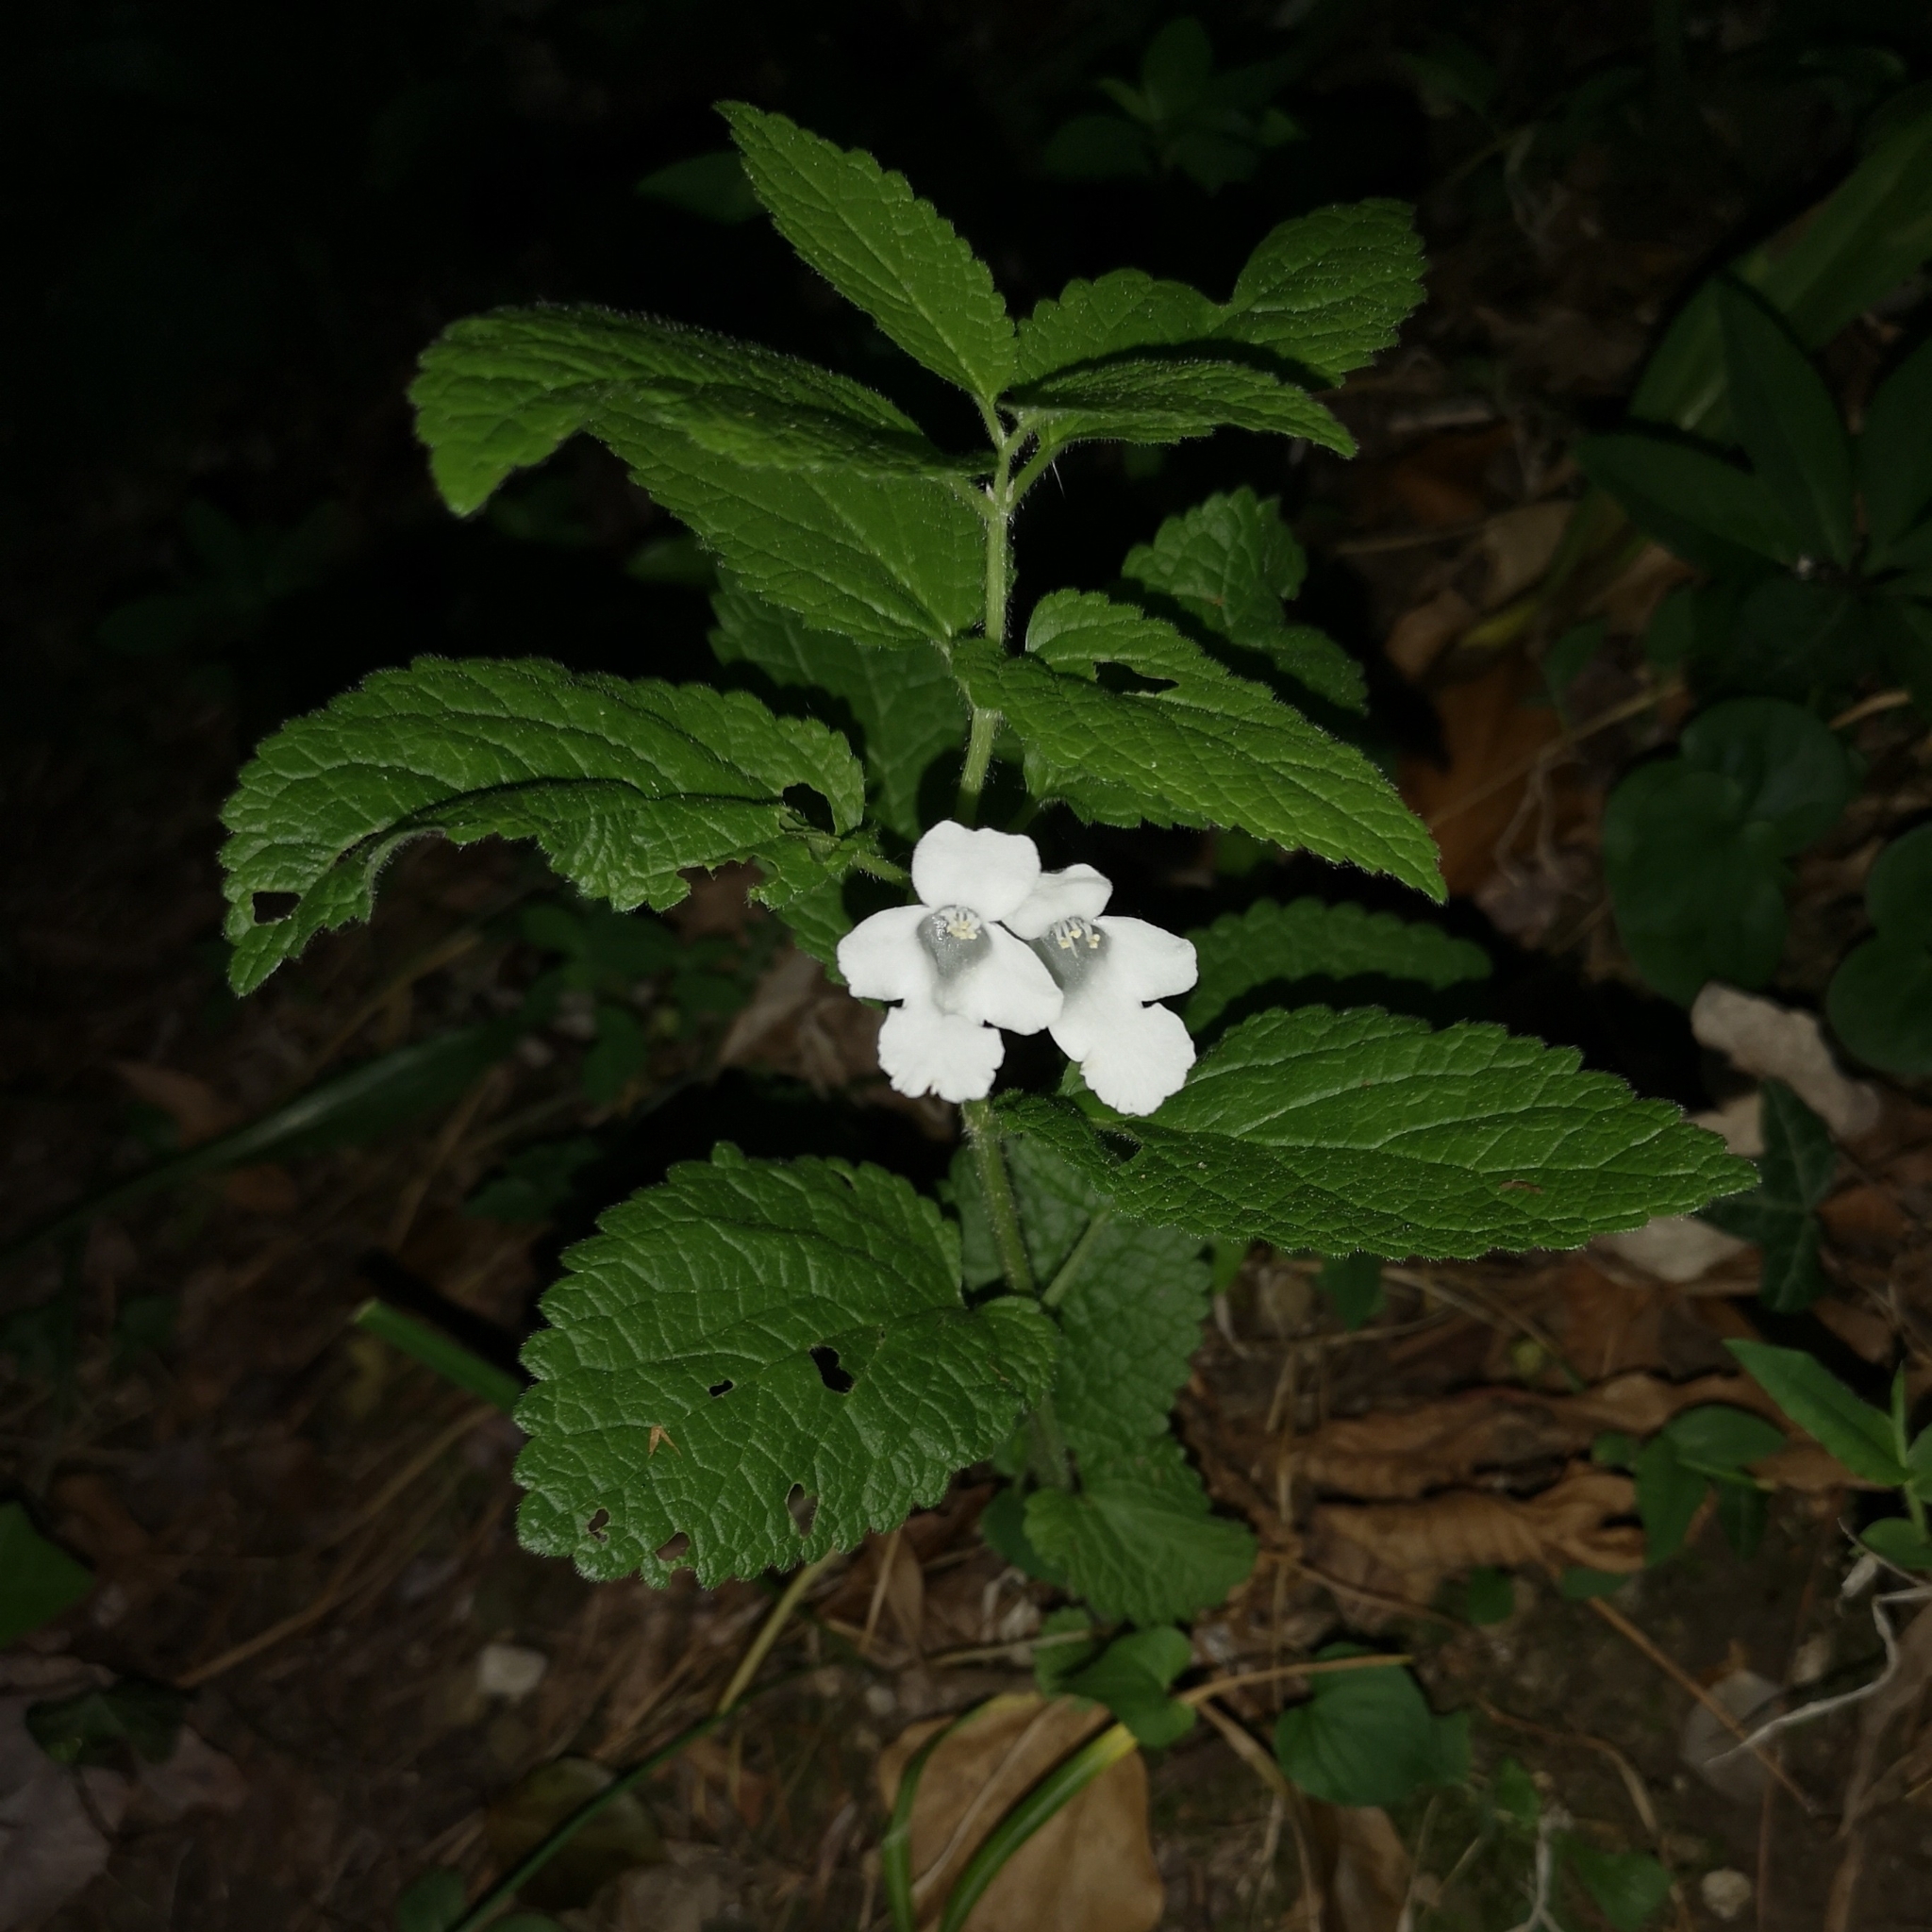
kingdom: Plantae
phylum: Tracheophyta
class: Magnoliopsida
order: Lamiales
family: Lamiaceae
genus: Melittis
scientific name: Melittis melissophyllum
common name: Bastard balm
